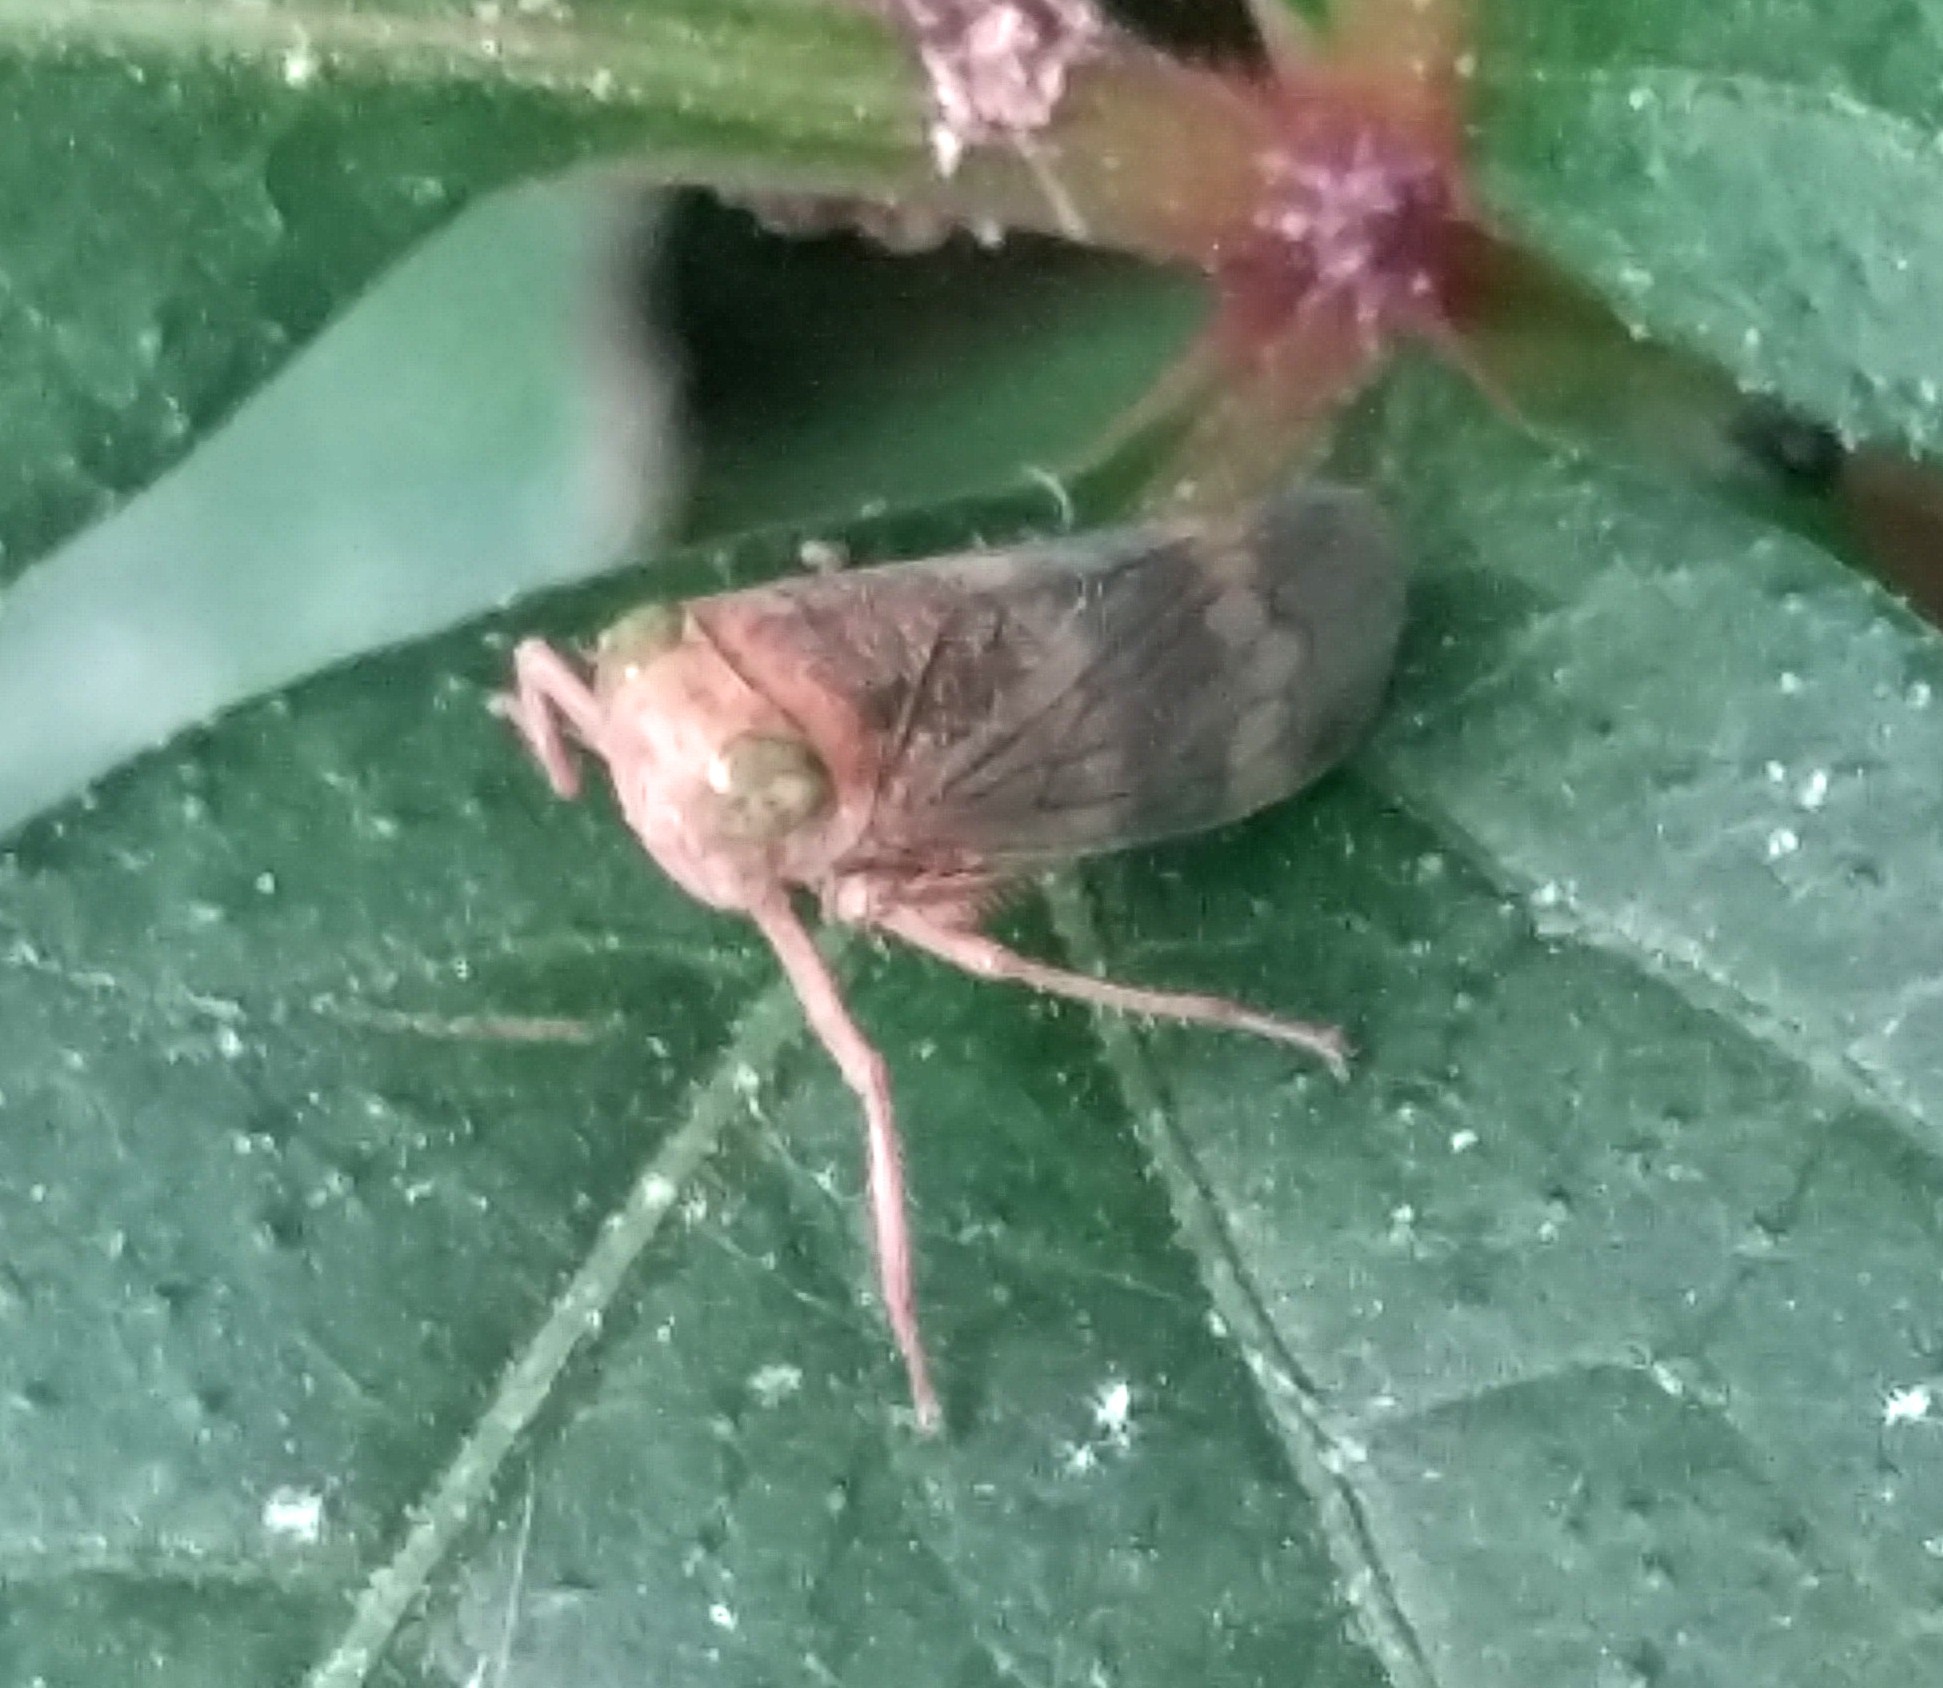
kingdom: Animalia
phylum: Arthropoda
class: Insecta
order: Hemiptera
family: Cicadellidae
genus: Jikradia
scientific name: Jikradia olitoria
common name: Coppery leafhopper
